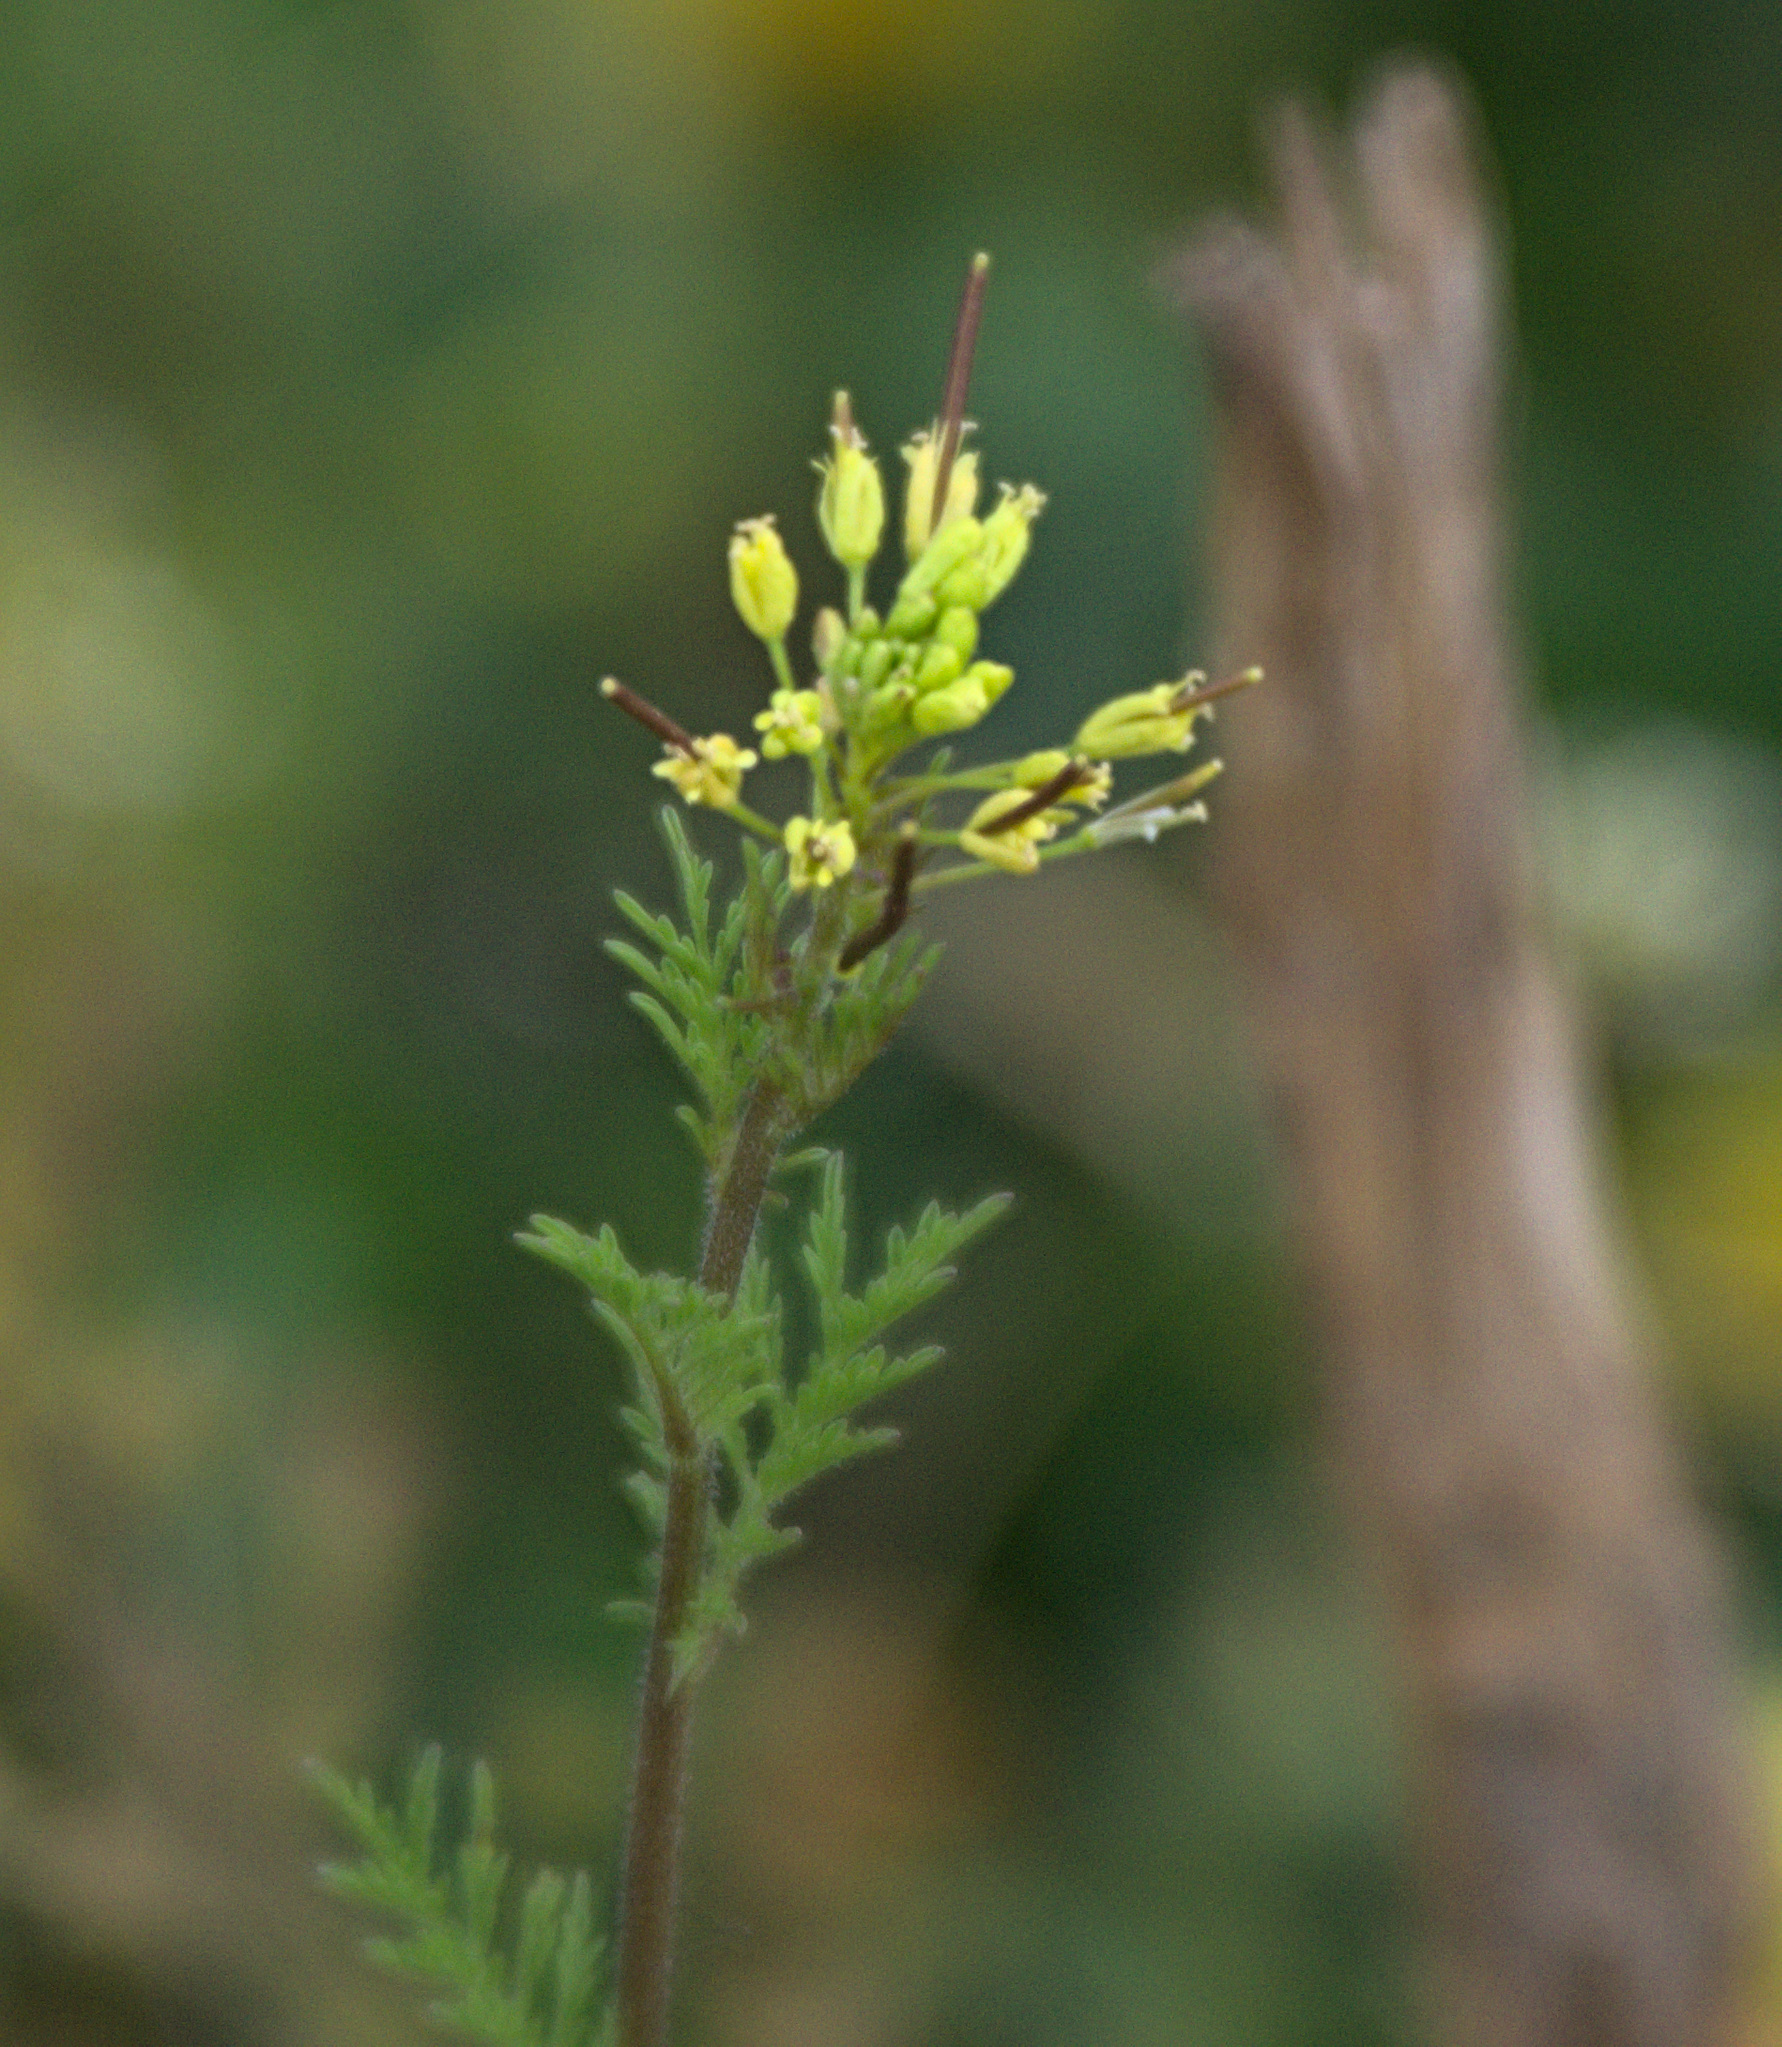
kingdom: Plantae
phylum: Tracheophyta
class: Magnoliopsida
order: Brassicales
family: Brassicaceae
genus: Descurainia
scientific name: Descurainia sophia
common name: Flixweed
